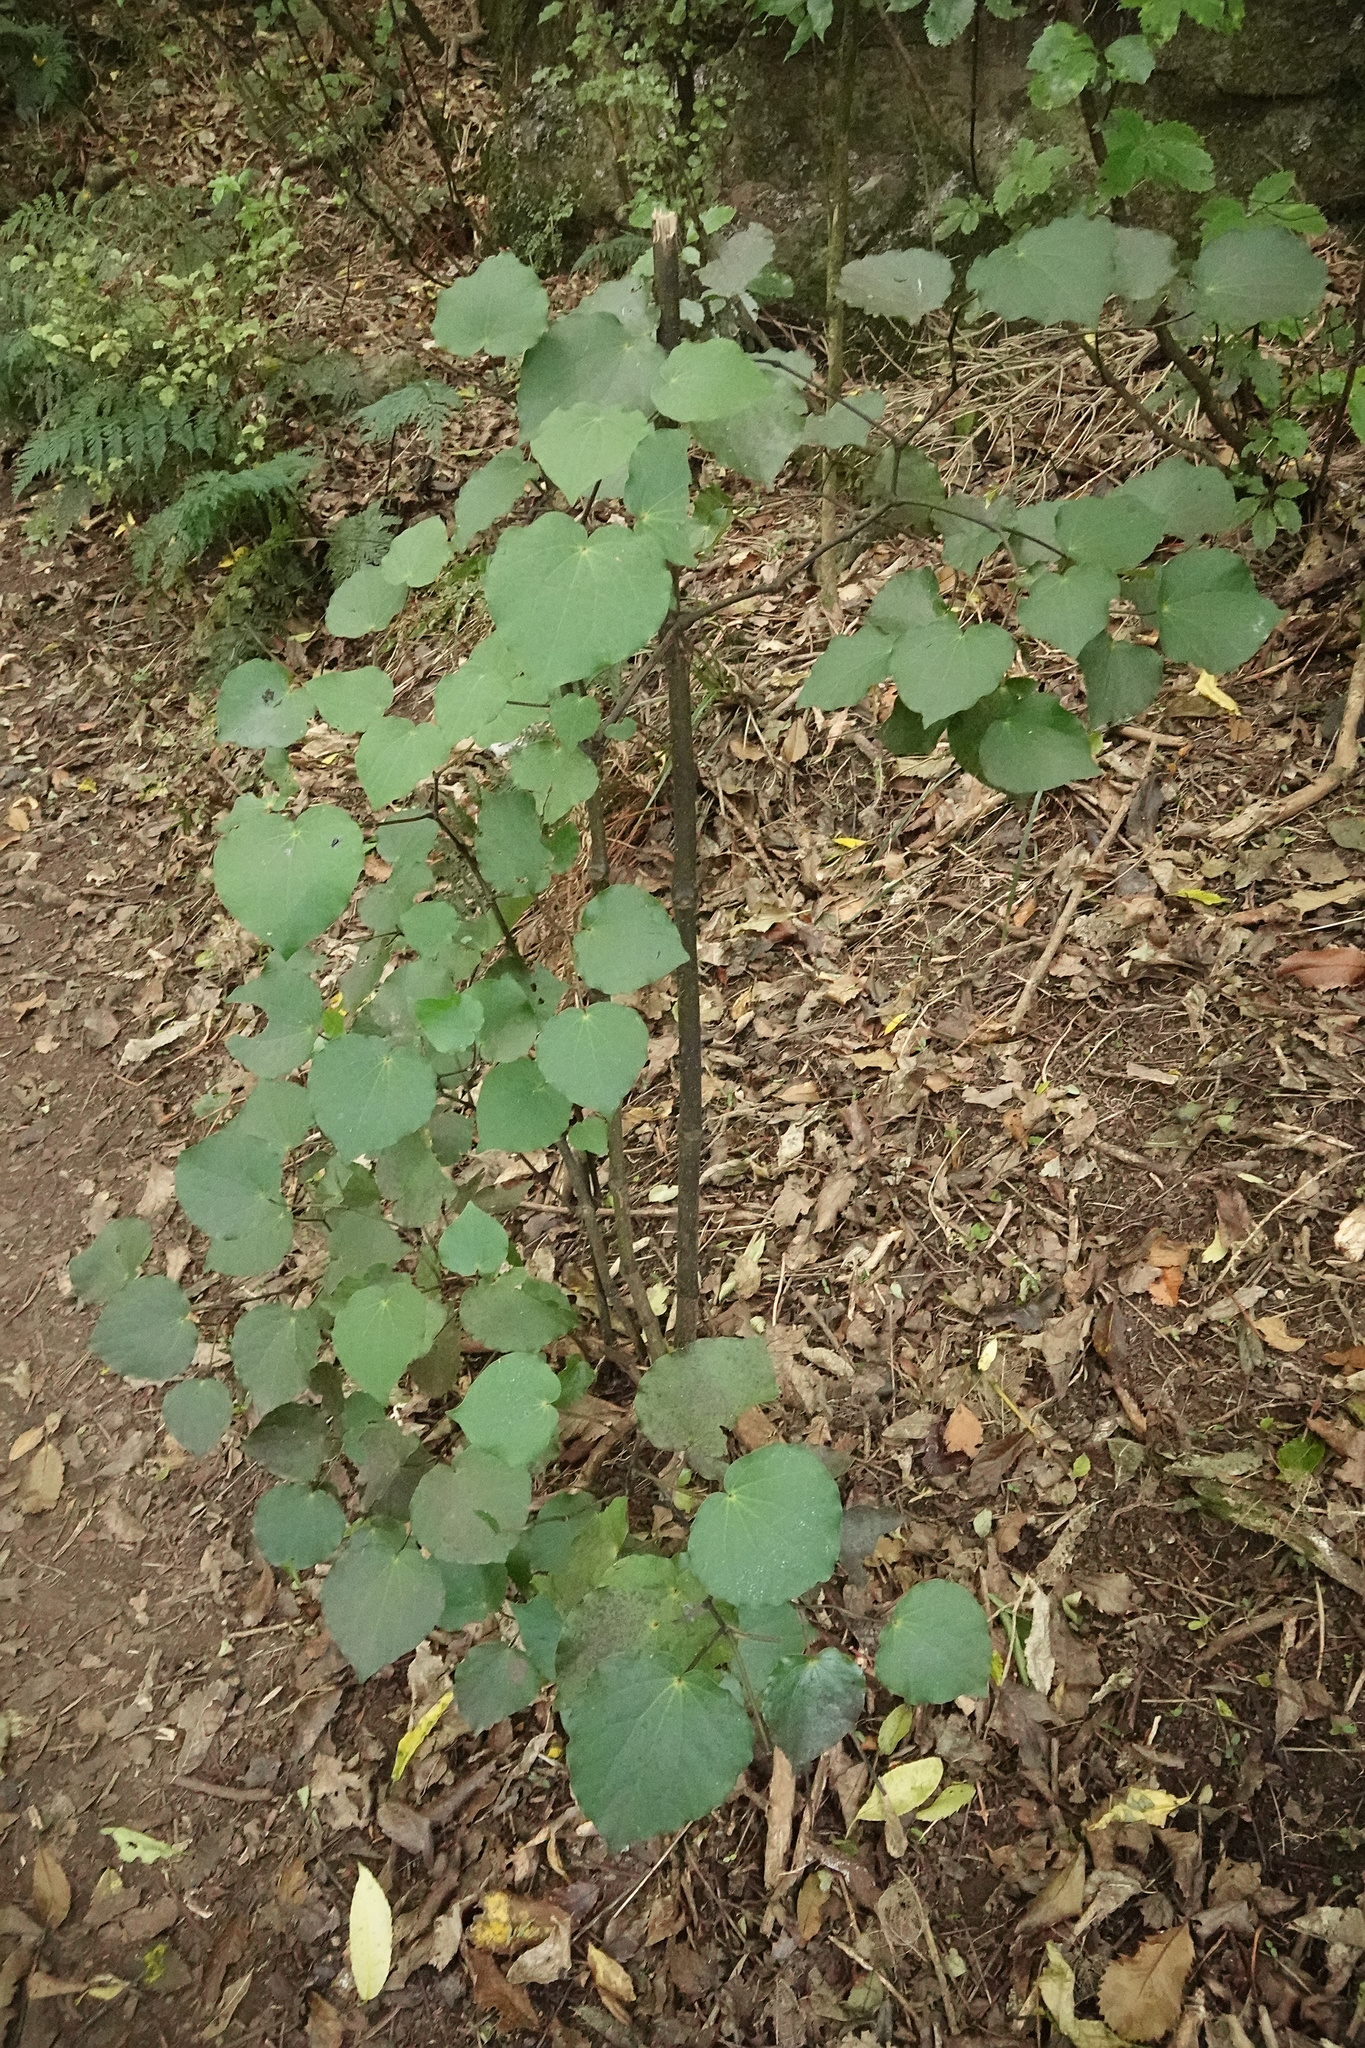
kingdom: Plantae
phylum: Tracheophyta
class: Magnoliopsida
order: Piperales
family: Piperaceae
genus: Macropiper
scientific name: Macropiper excelsum
